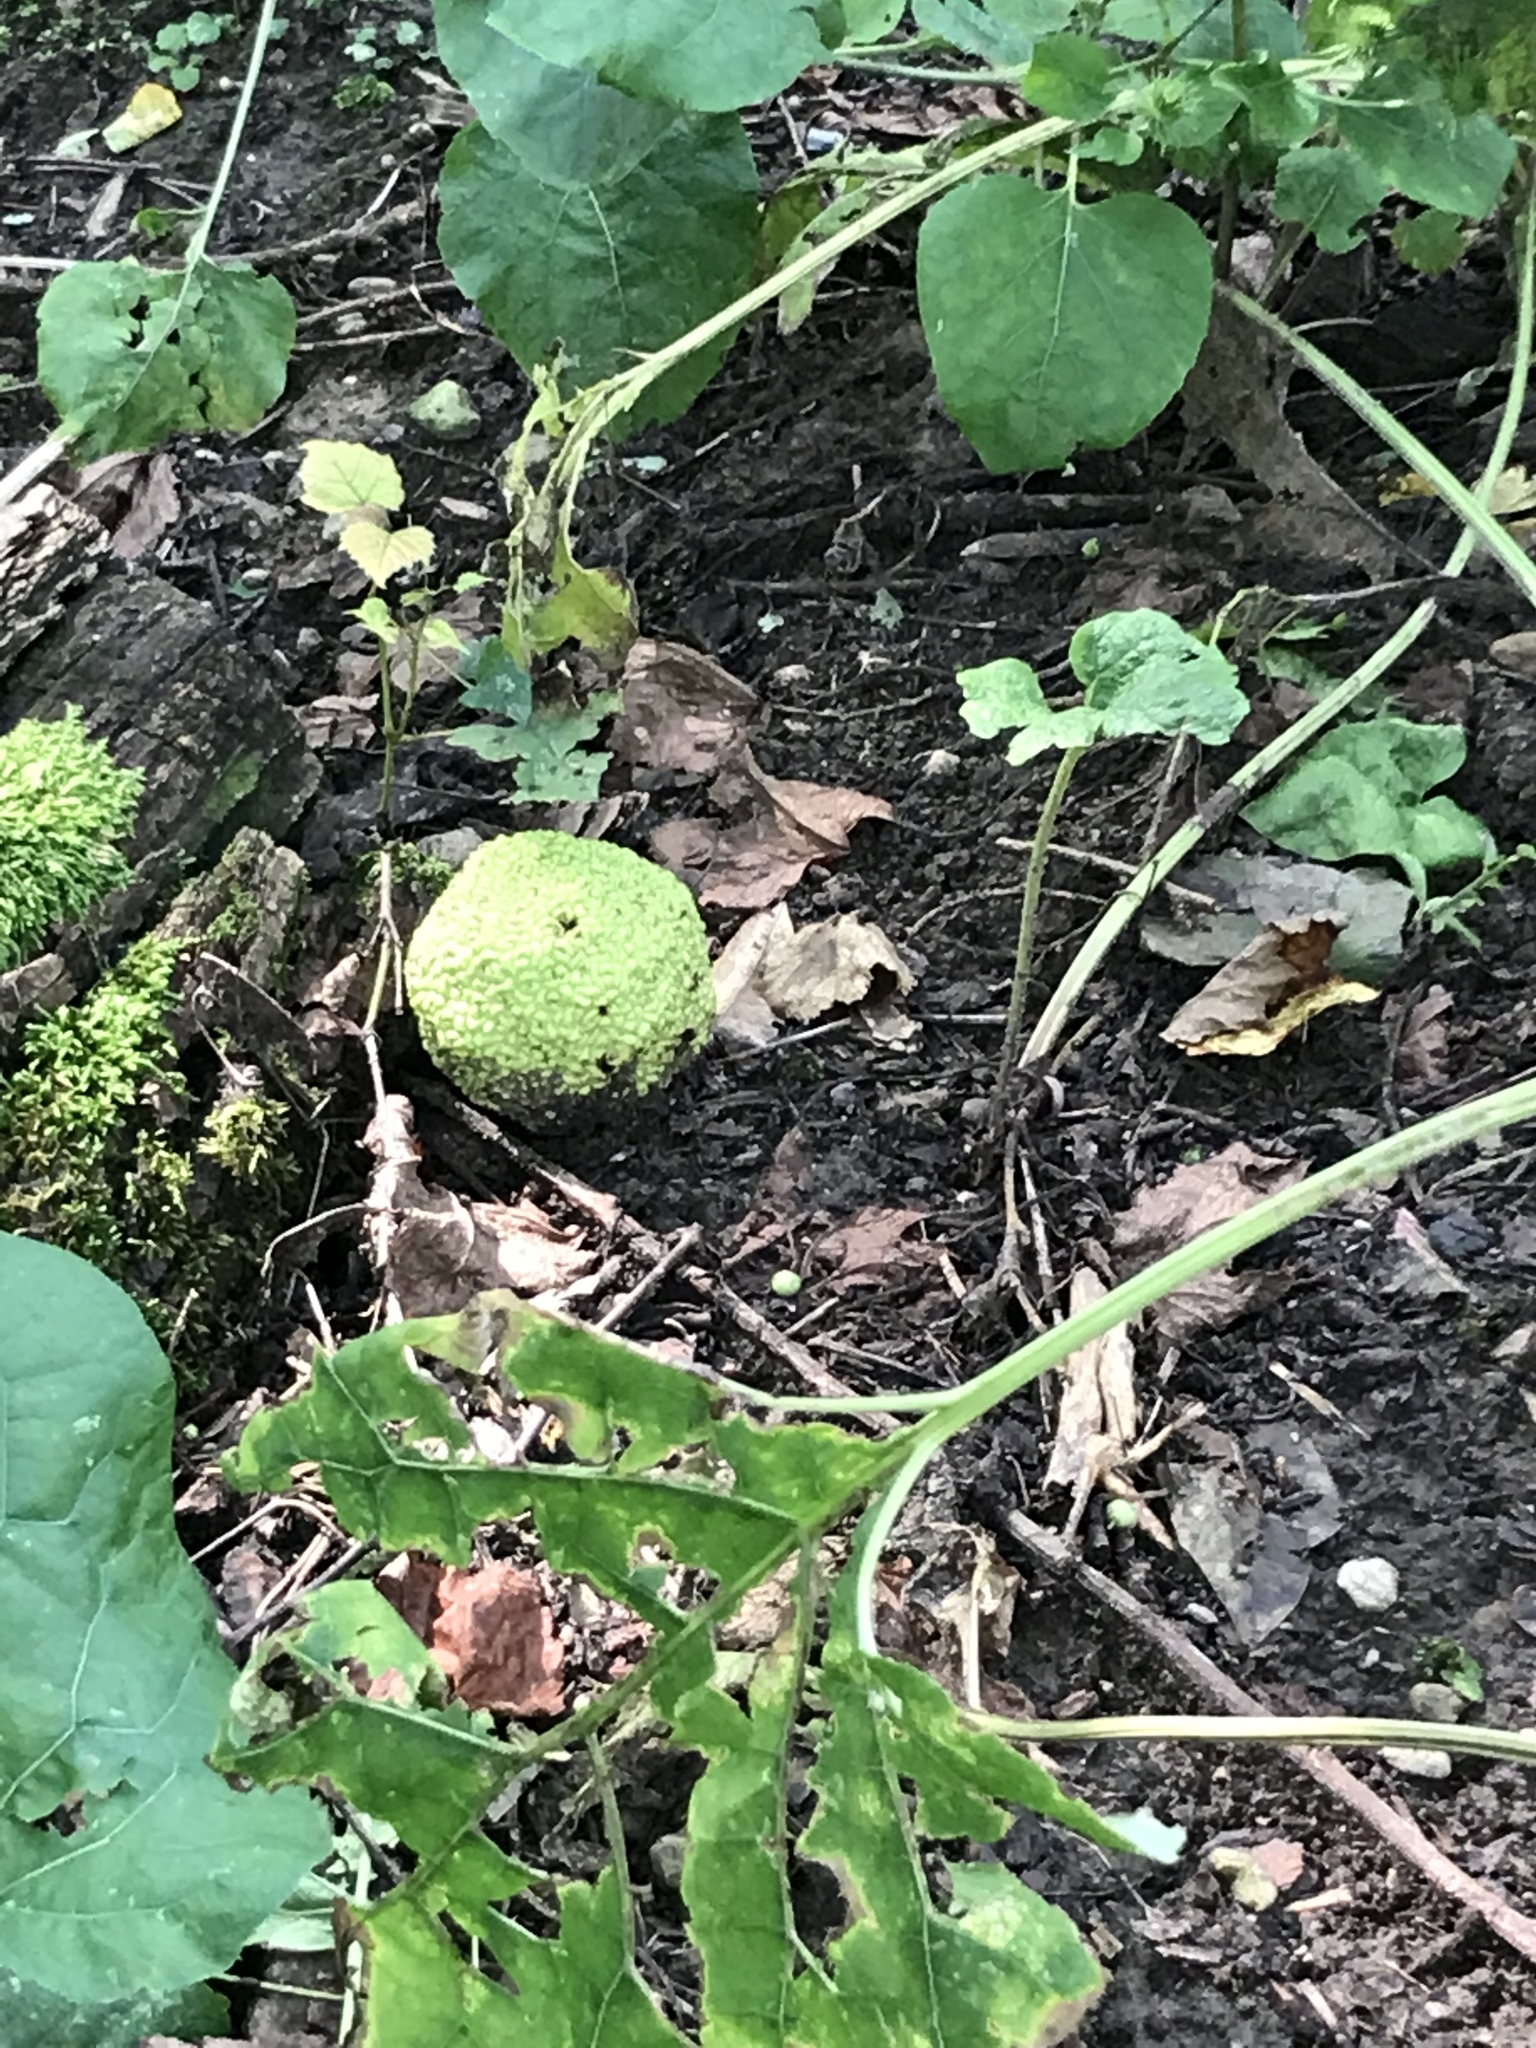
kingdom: Plantae
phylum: Tracheophyta
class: Magnoliopsida
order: Rosales
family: Moraceae
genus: Maclura
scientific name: Maclura pomifera
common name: Osage-orange
